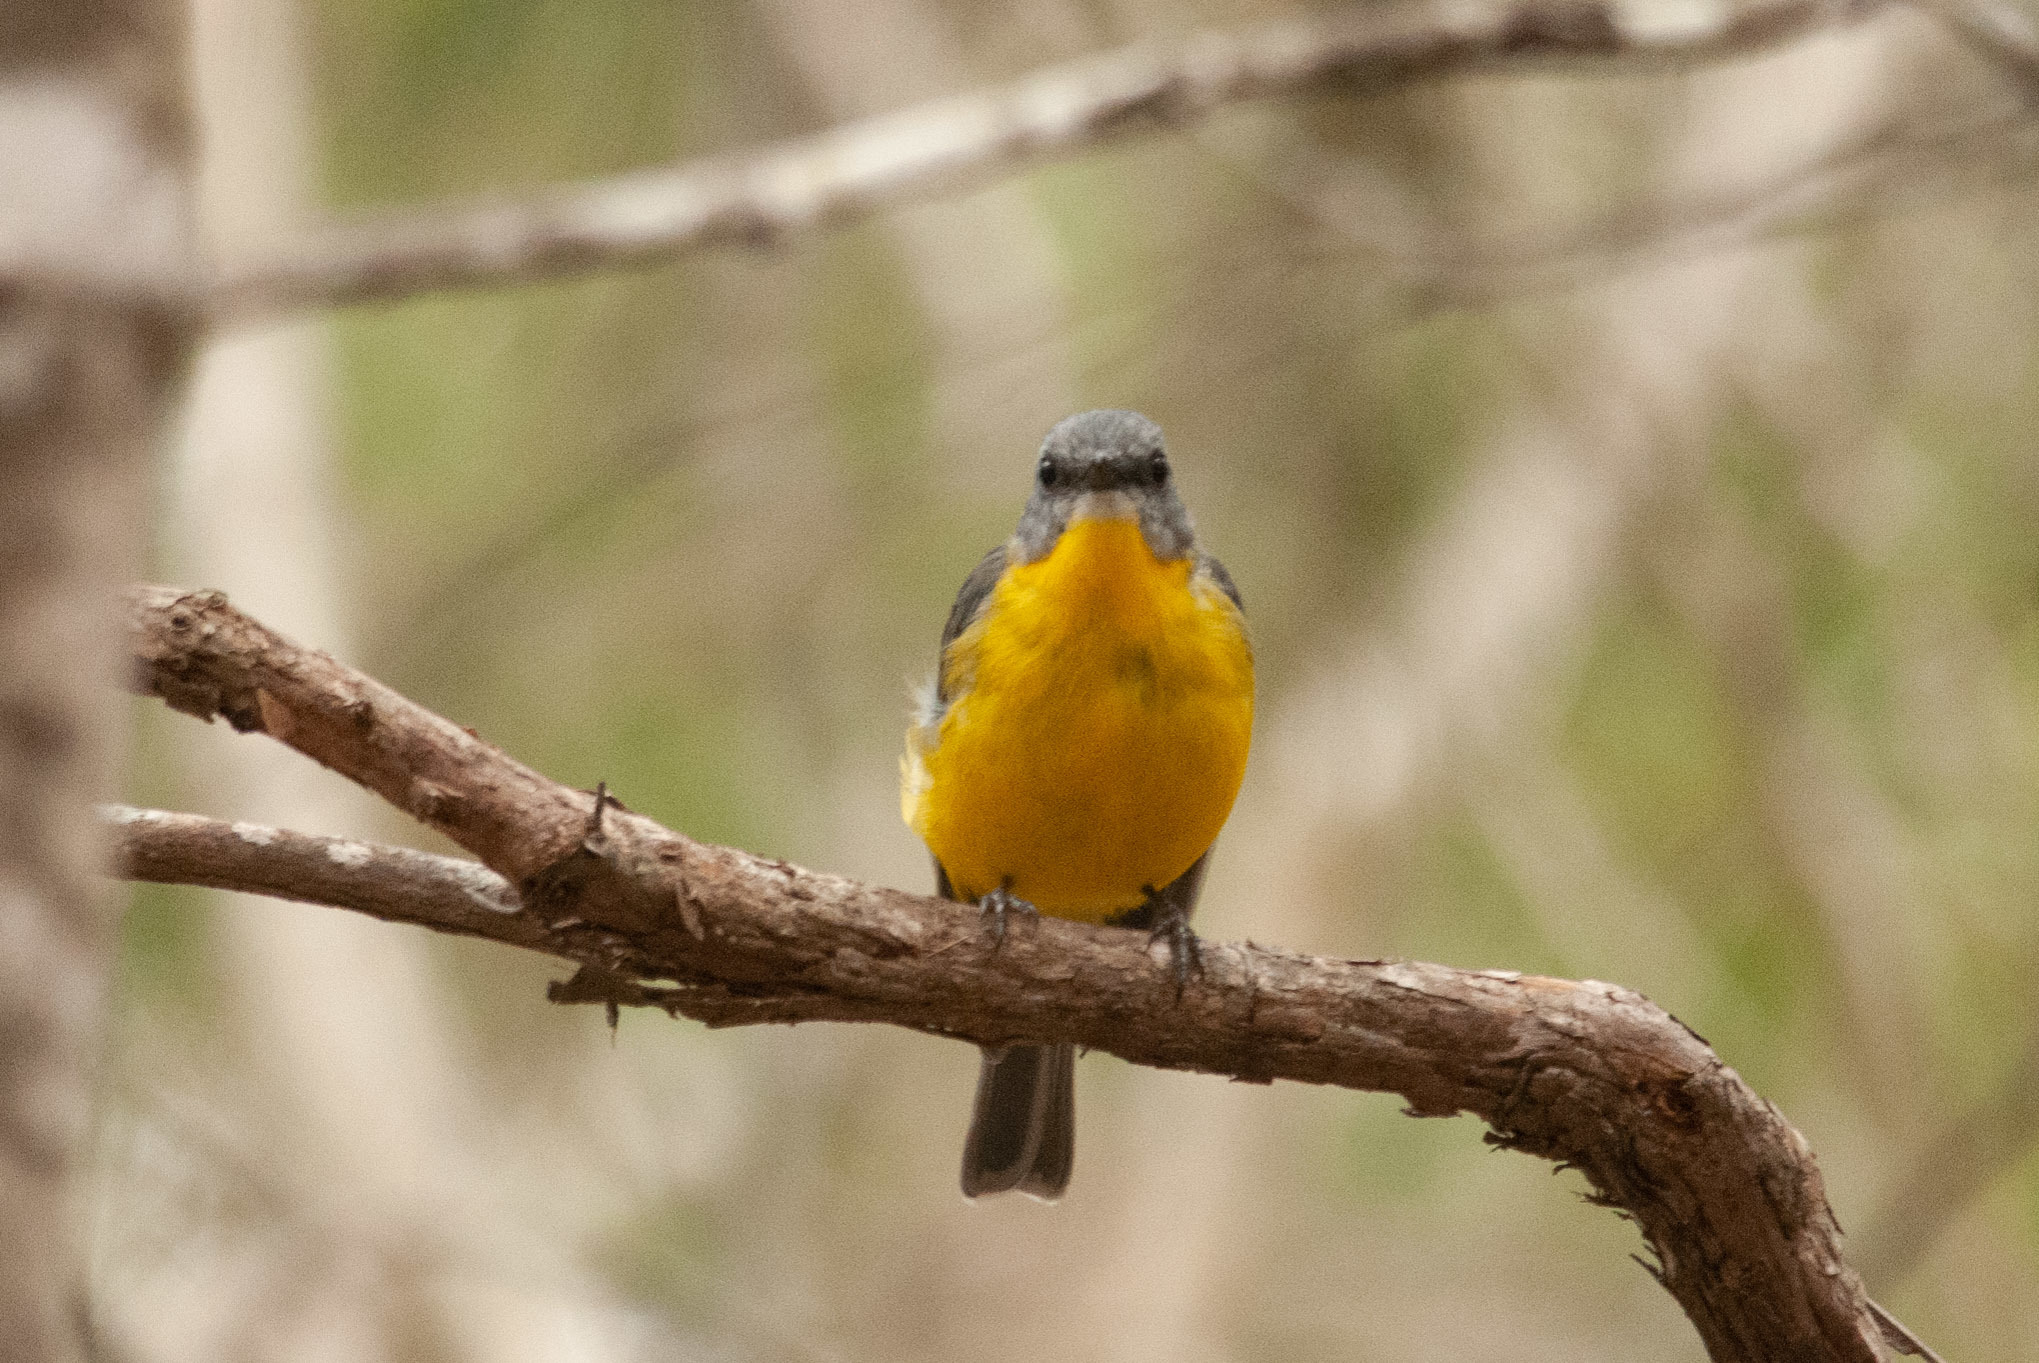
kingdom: Animalia
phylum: Chordata
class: Aves
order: Passeriformes
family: Petroicidae
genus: Eopsaltria
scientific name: Eopsaltria australis
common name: Eastern yellow robin
